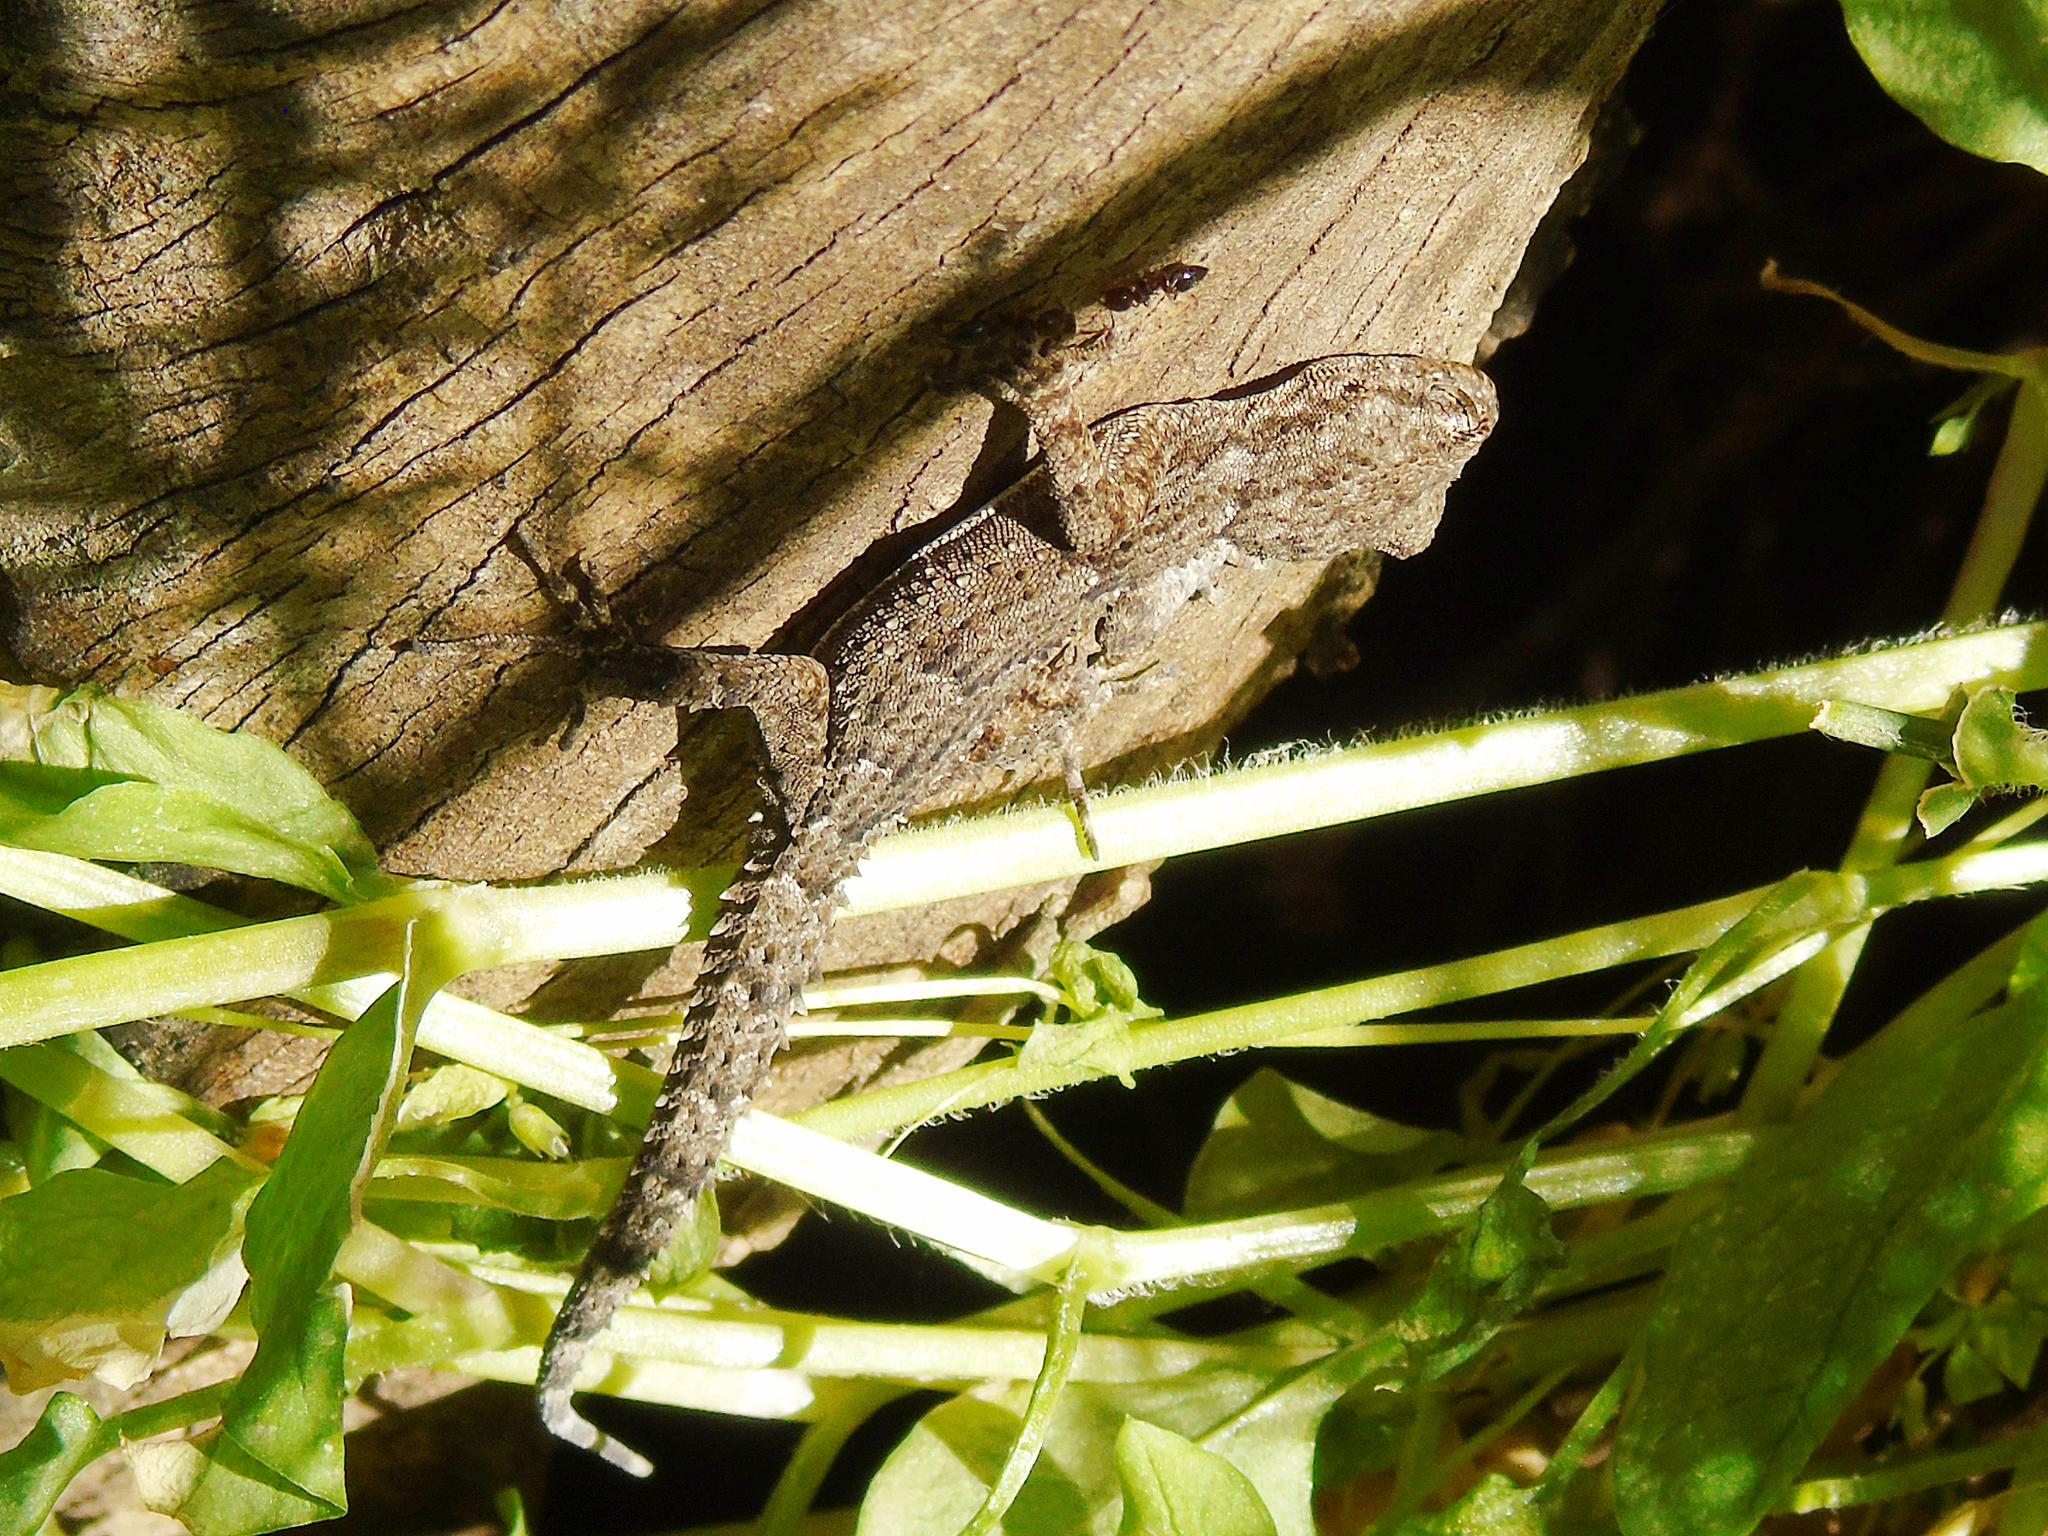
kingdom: Animalia
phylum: Chordata
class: Squamata
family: Gekkonidae
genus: Mediodactylus
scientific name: Mediodactylus kotschyi
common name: Kotschy's gecko
